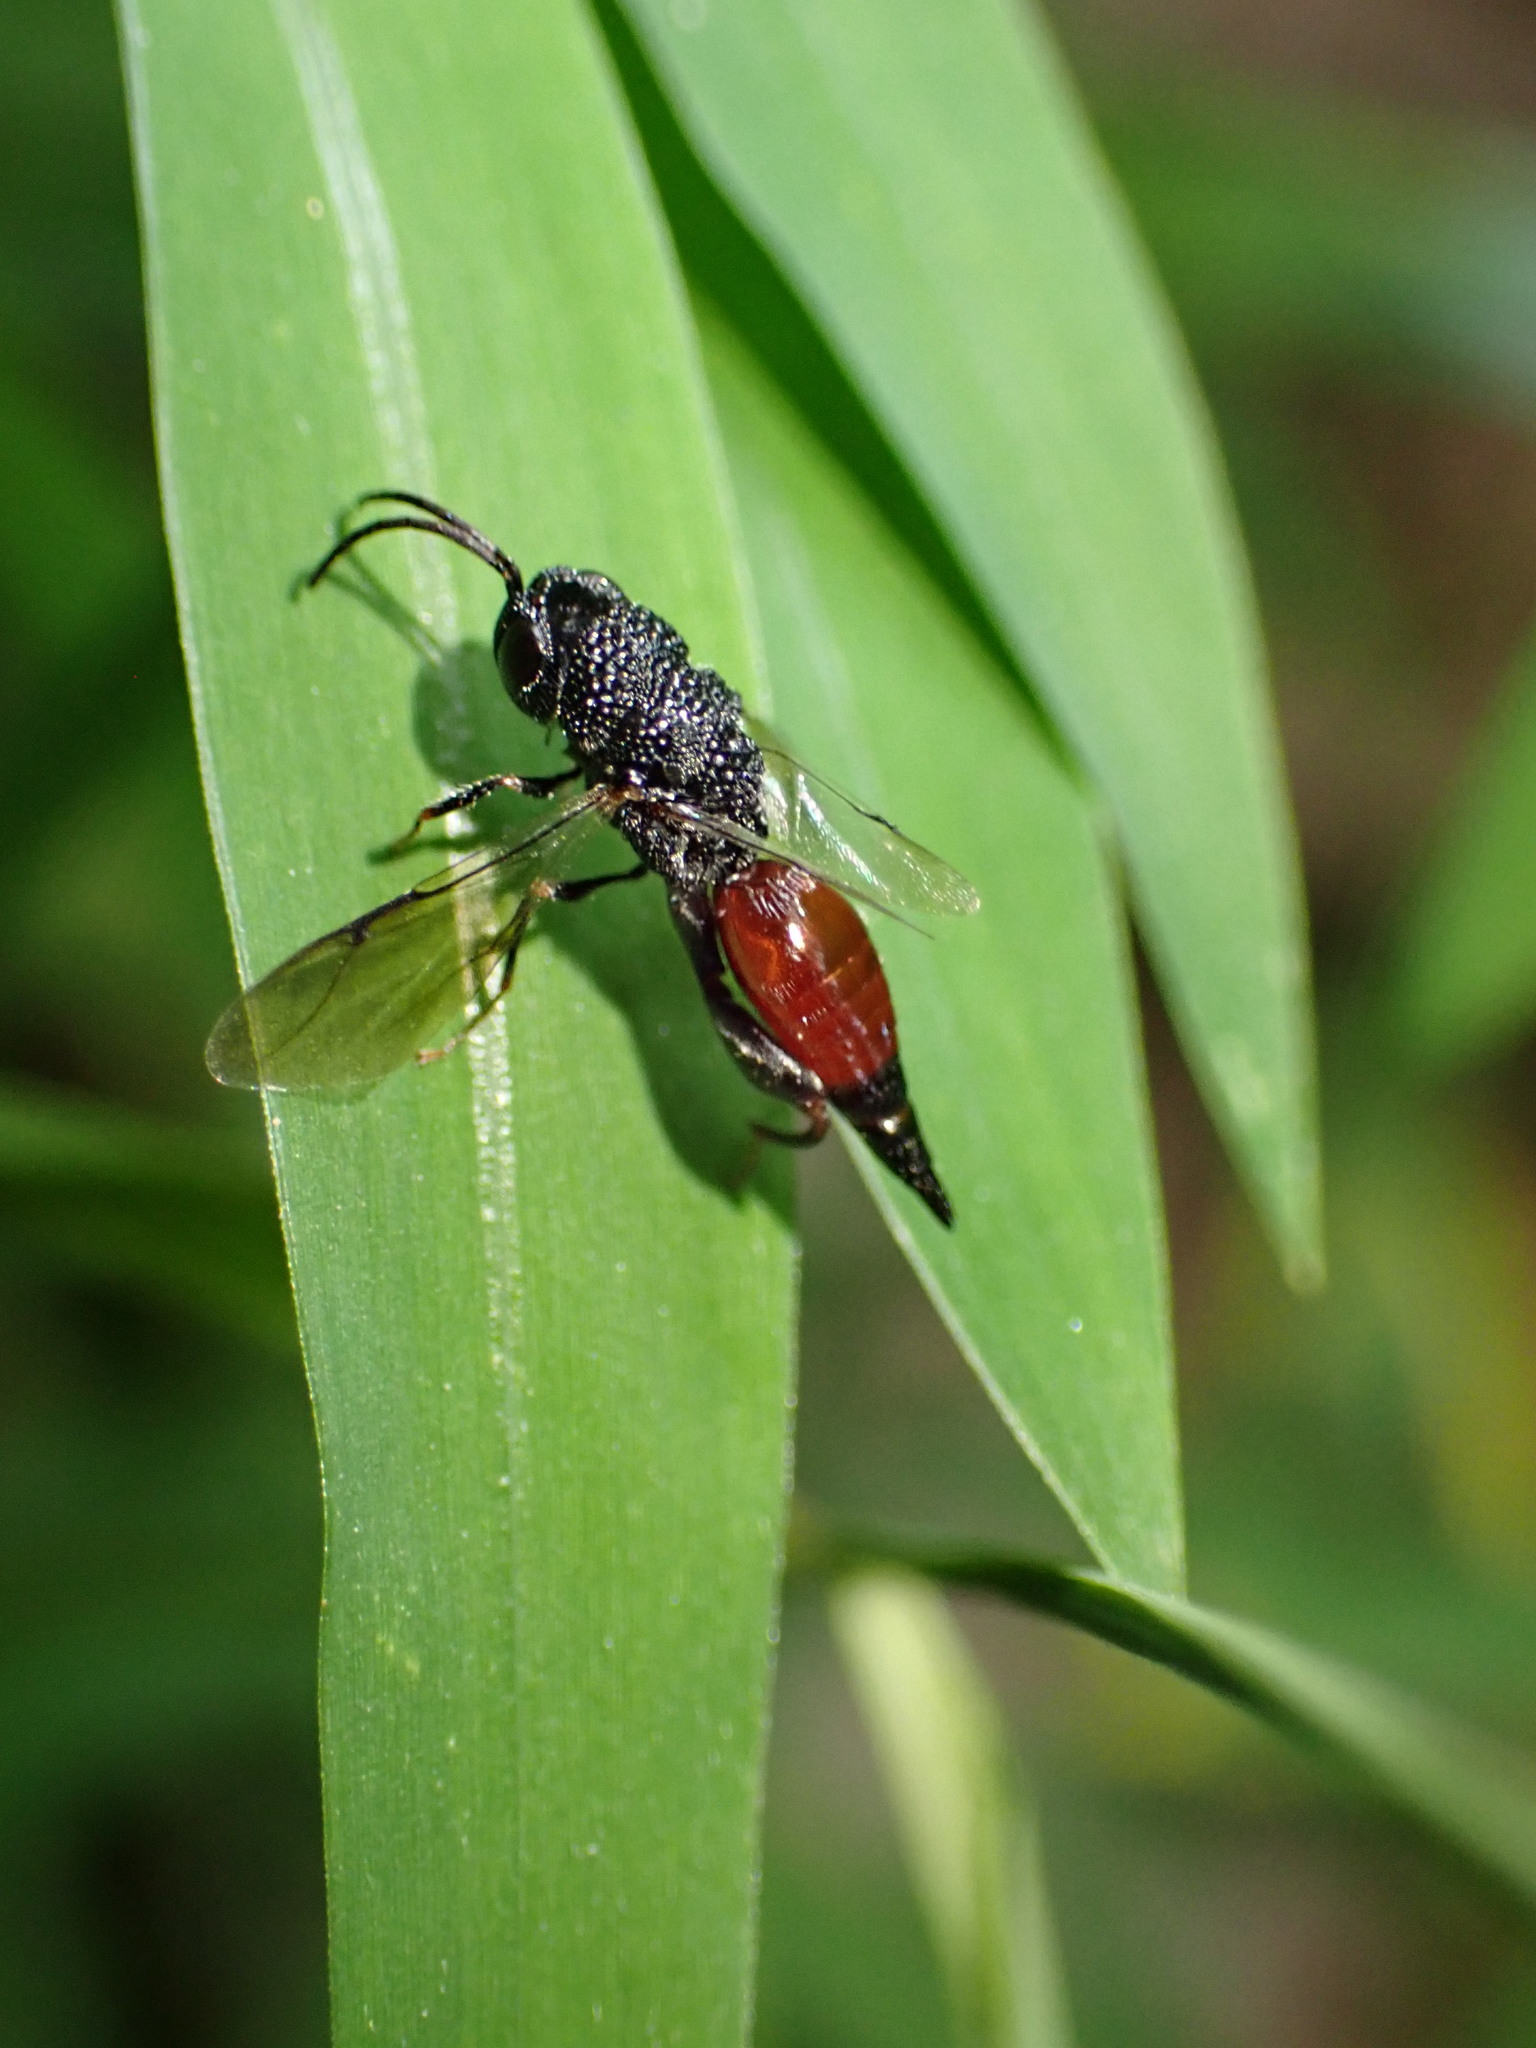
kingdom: Animalia
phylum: Arthropoda
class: Insecta
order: Hymenoptera
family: Chalcididae
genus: Phasgonophora
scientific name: Phasgonophora sulcata
